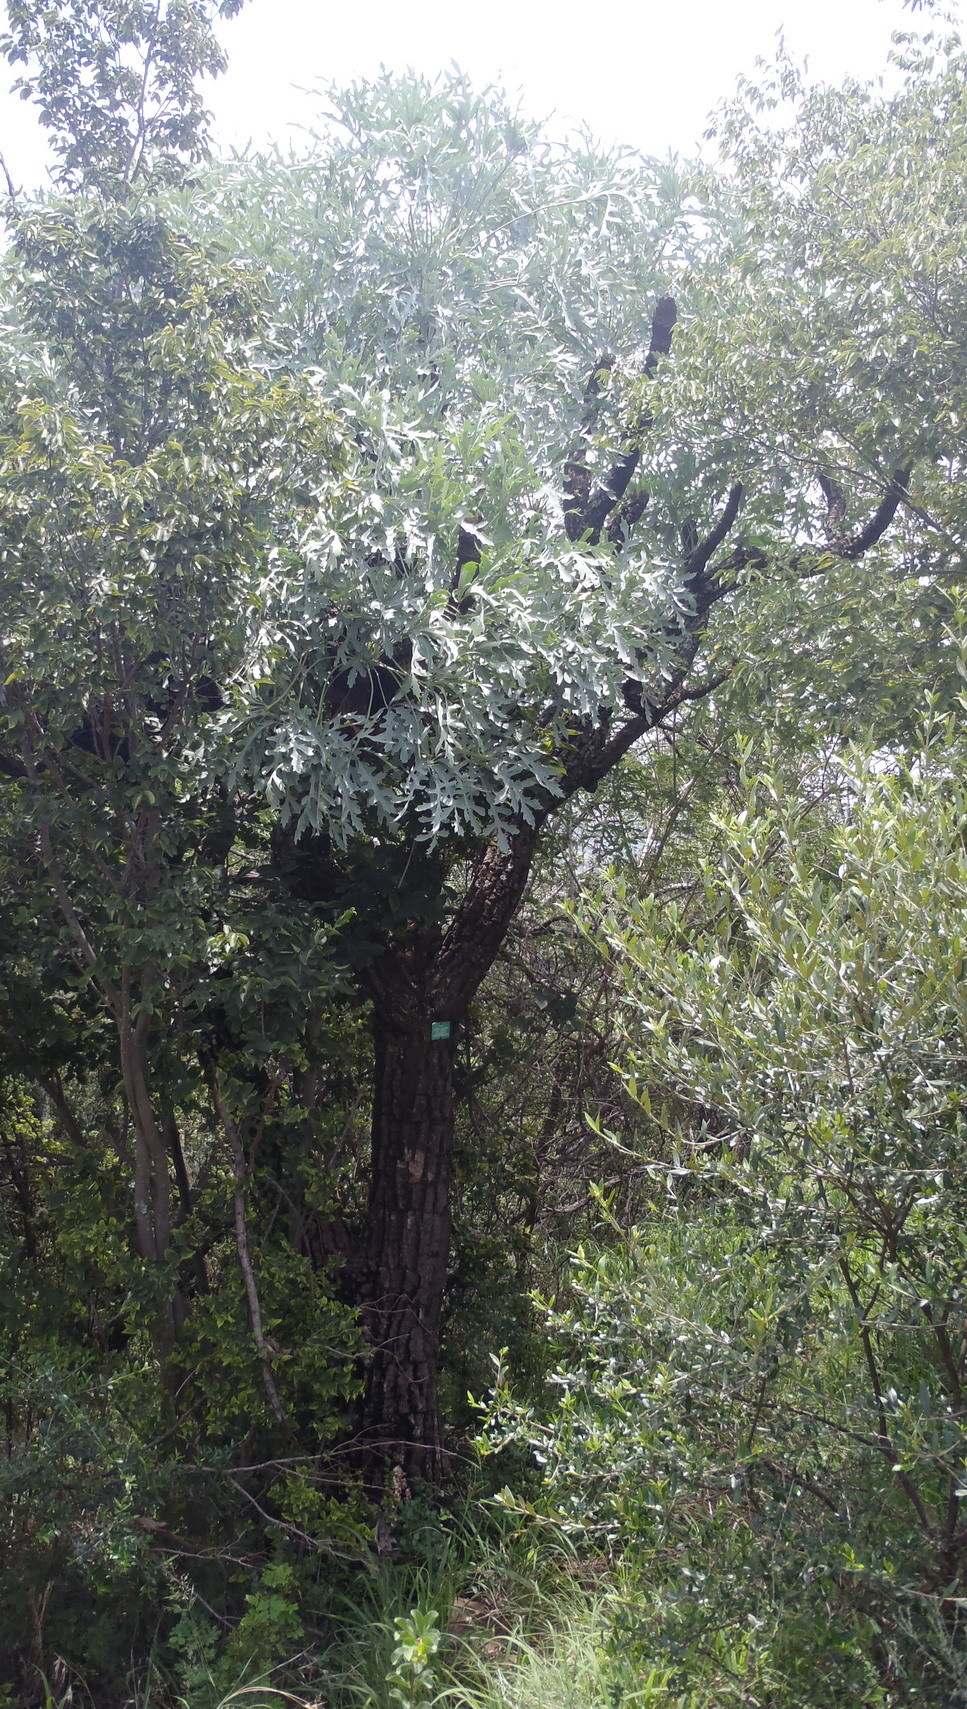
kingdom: Plantae
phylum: Tracheophyta
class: Magnoliopsida
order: Apiales
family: Araliaceae
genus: Cussonia
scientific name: Cussonia paniculata
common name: Cabbagetree
